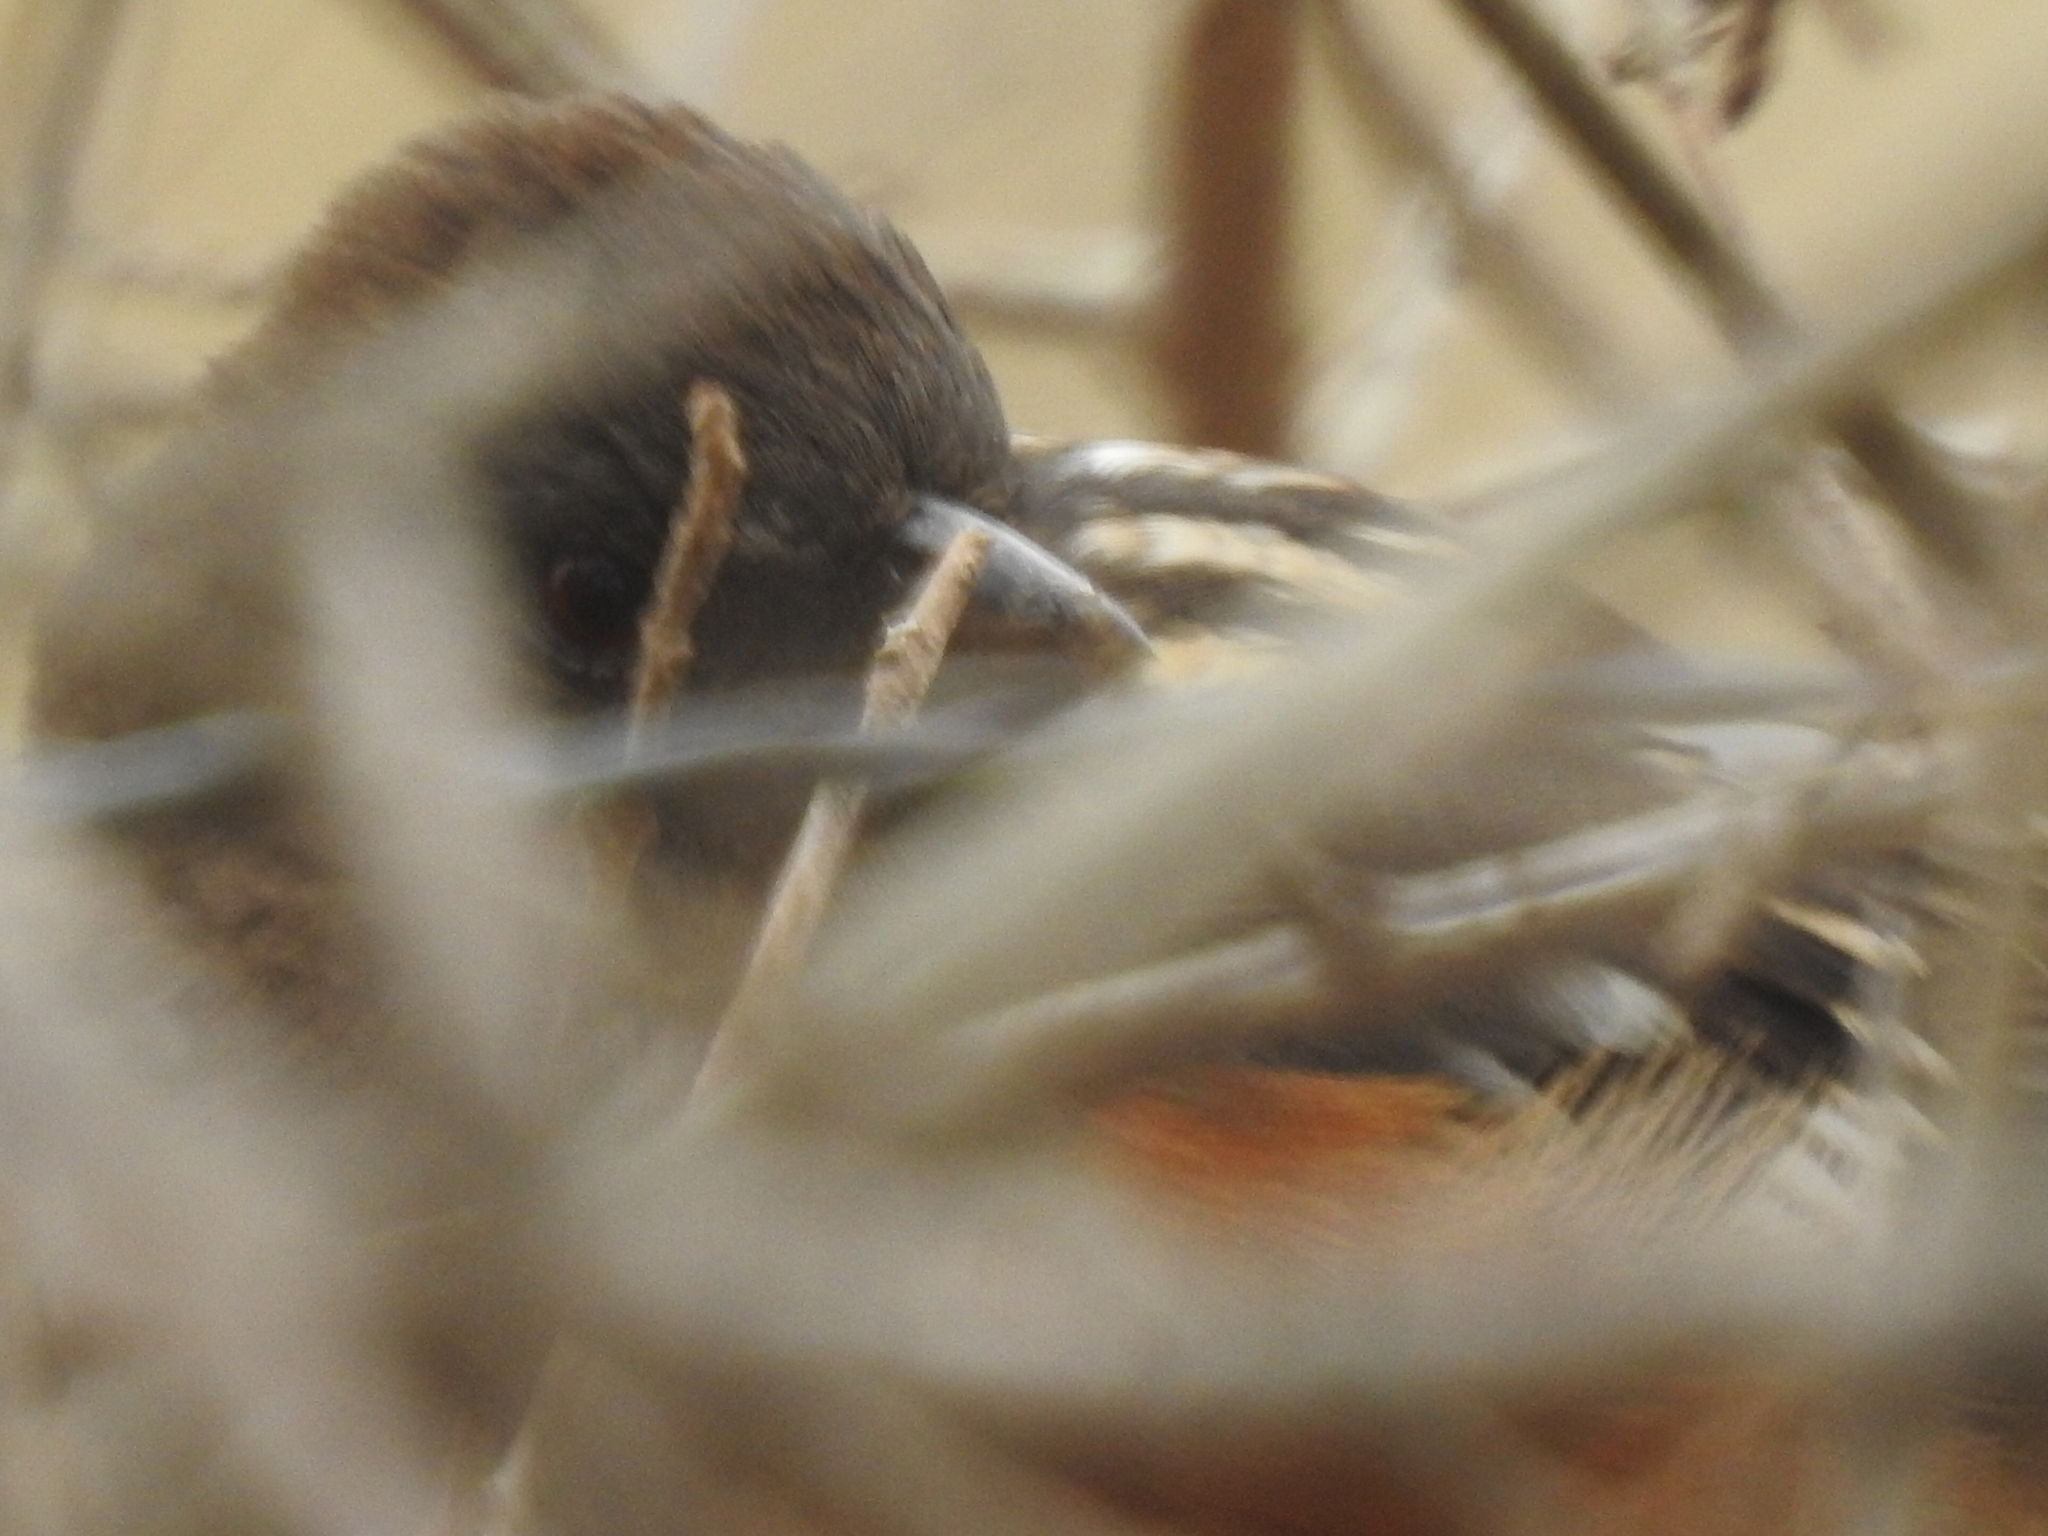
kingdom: Animalia
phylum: Chordata
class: Aves
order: Passeriformes
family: Passerellidae
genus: Pipilo
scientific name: Pipilo maculatus
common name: Spotted towhee
